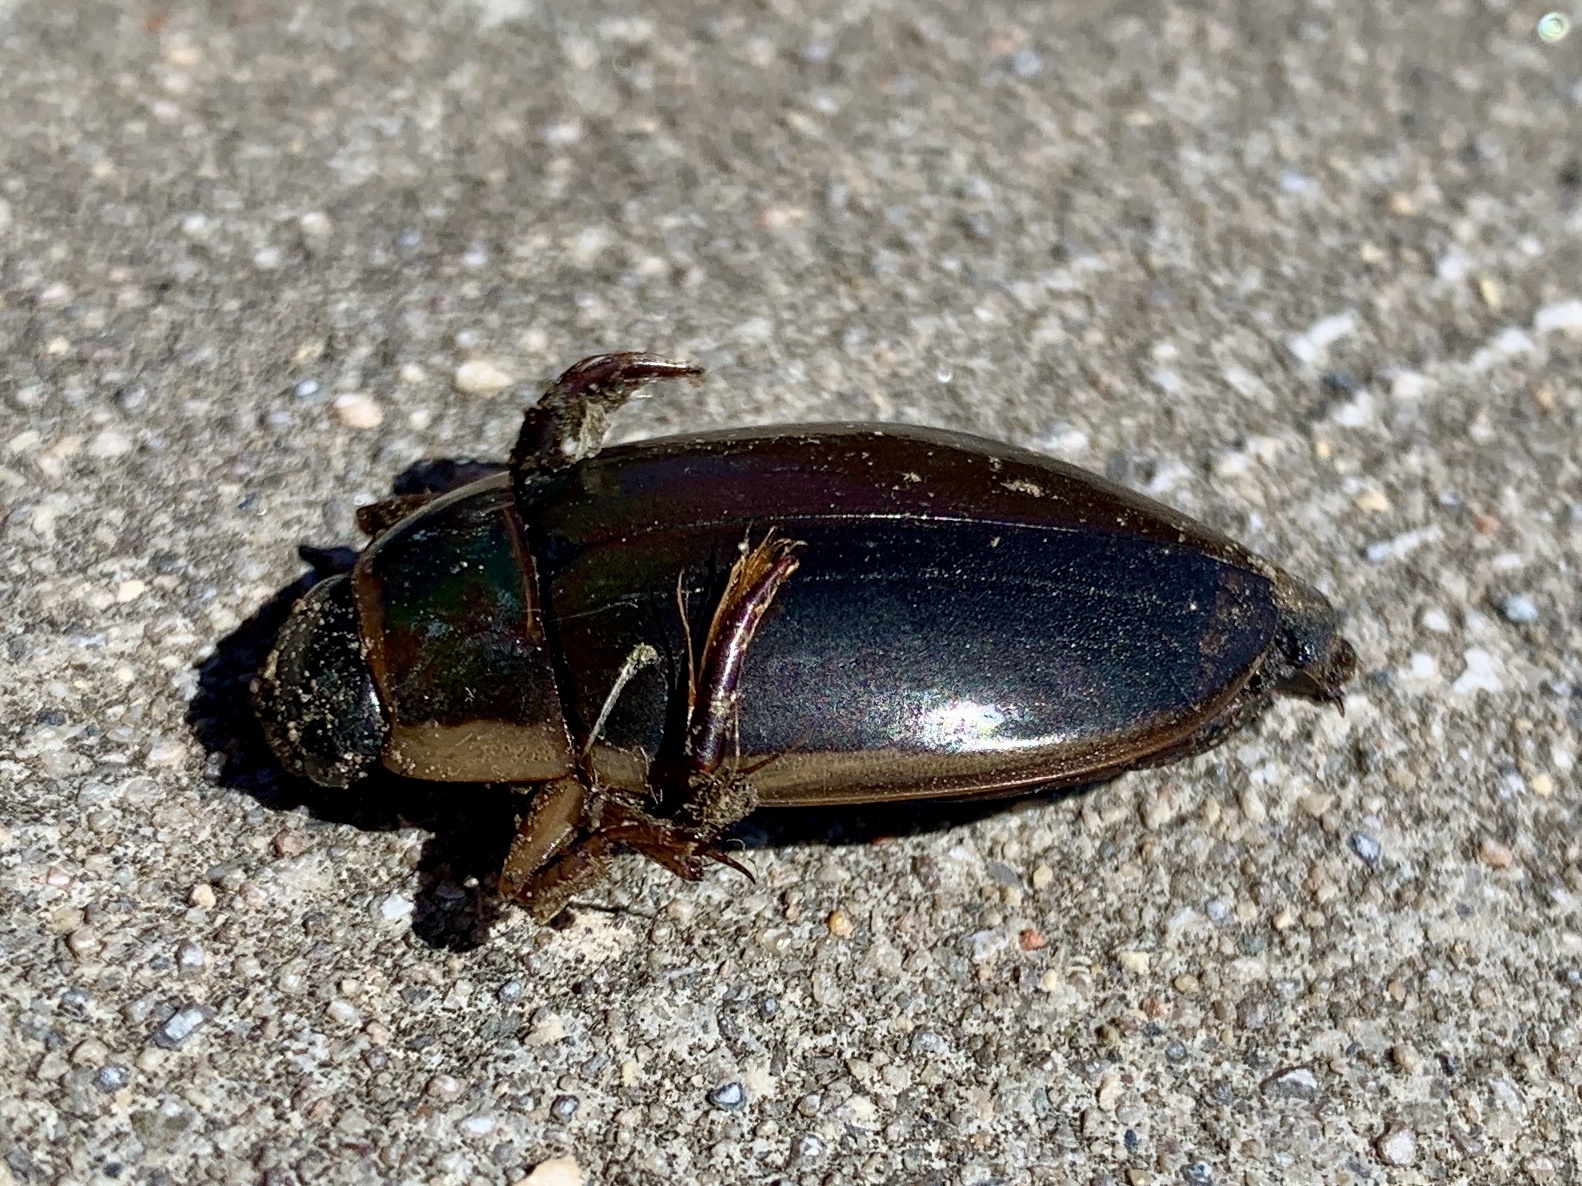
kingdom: Animalia
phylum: Arthropoda
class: Insecta
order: Coleoptera
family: Dytiscidae
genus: Dytiscus
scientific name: Dytiscus
